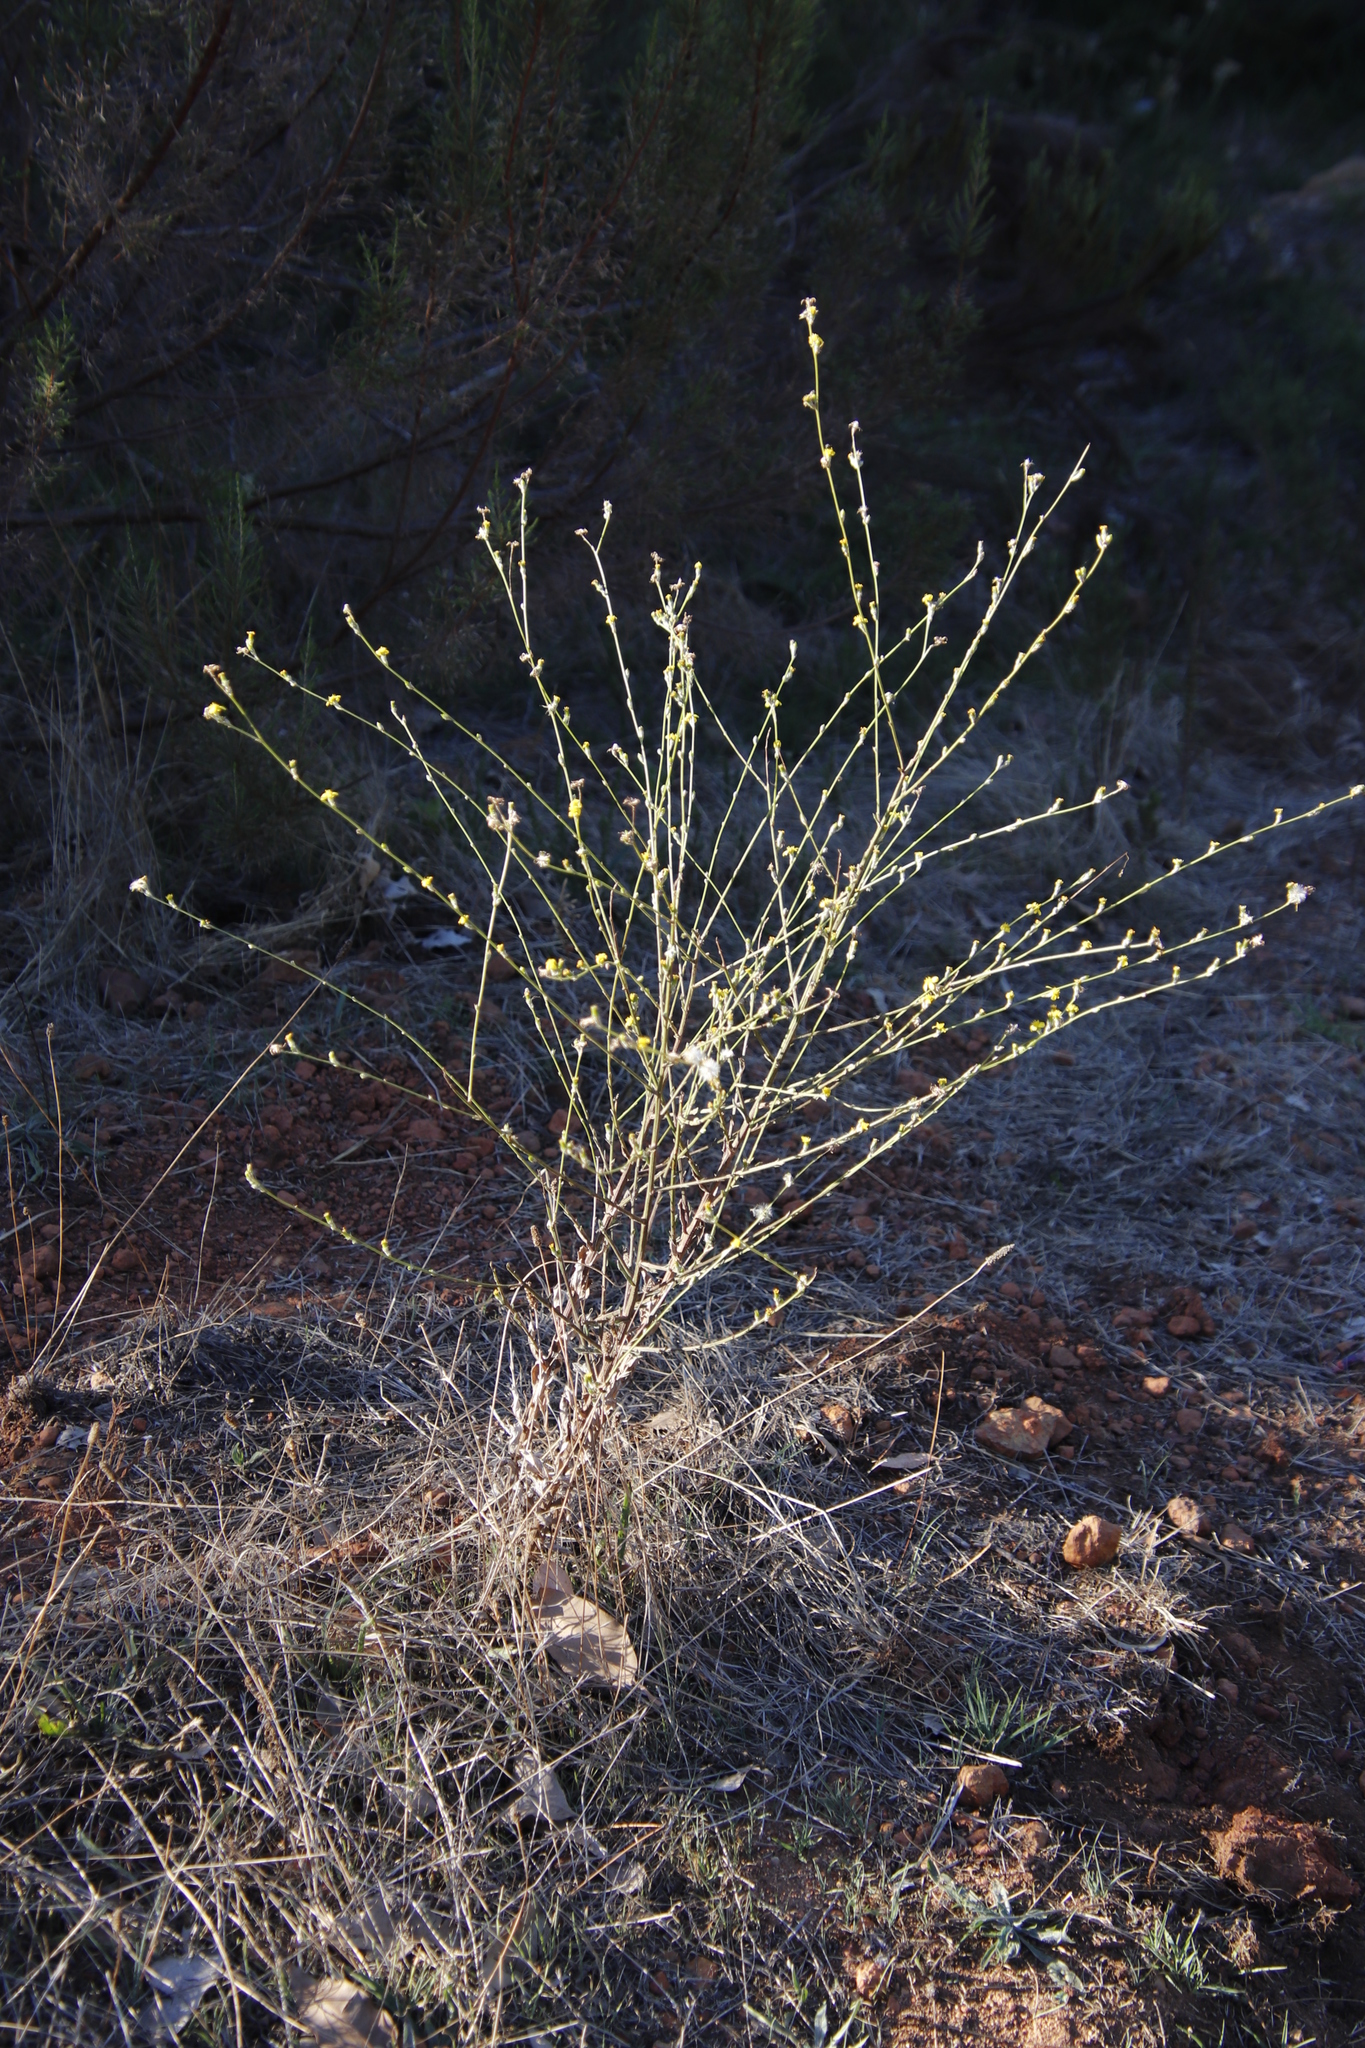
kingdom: Plantae
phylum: Tracheophyta
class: Magnoliopsida
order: Asterales
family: Asteraceae
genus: Senecio
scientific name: Senecio pubigerus
